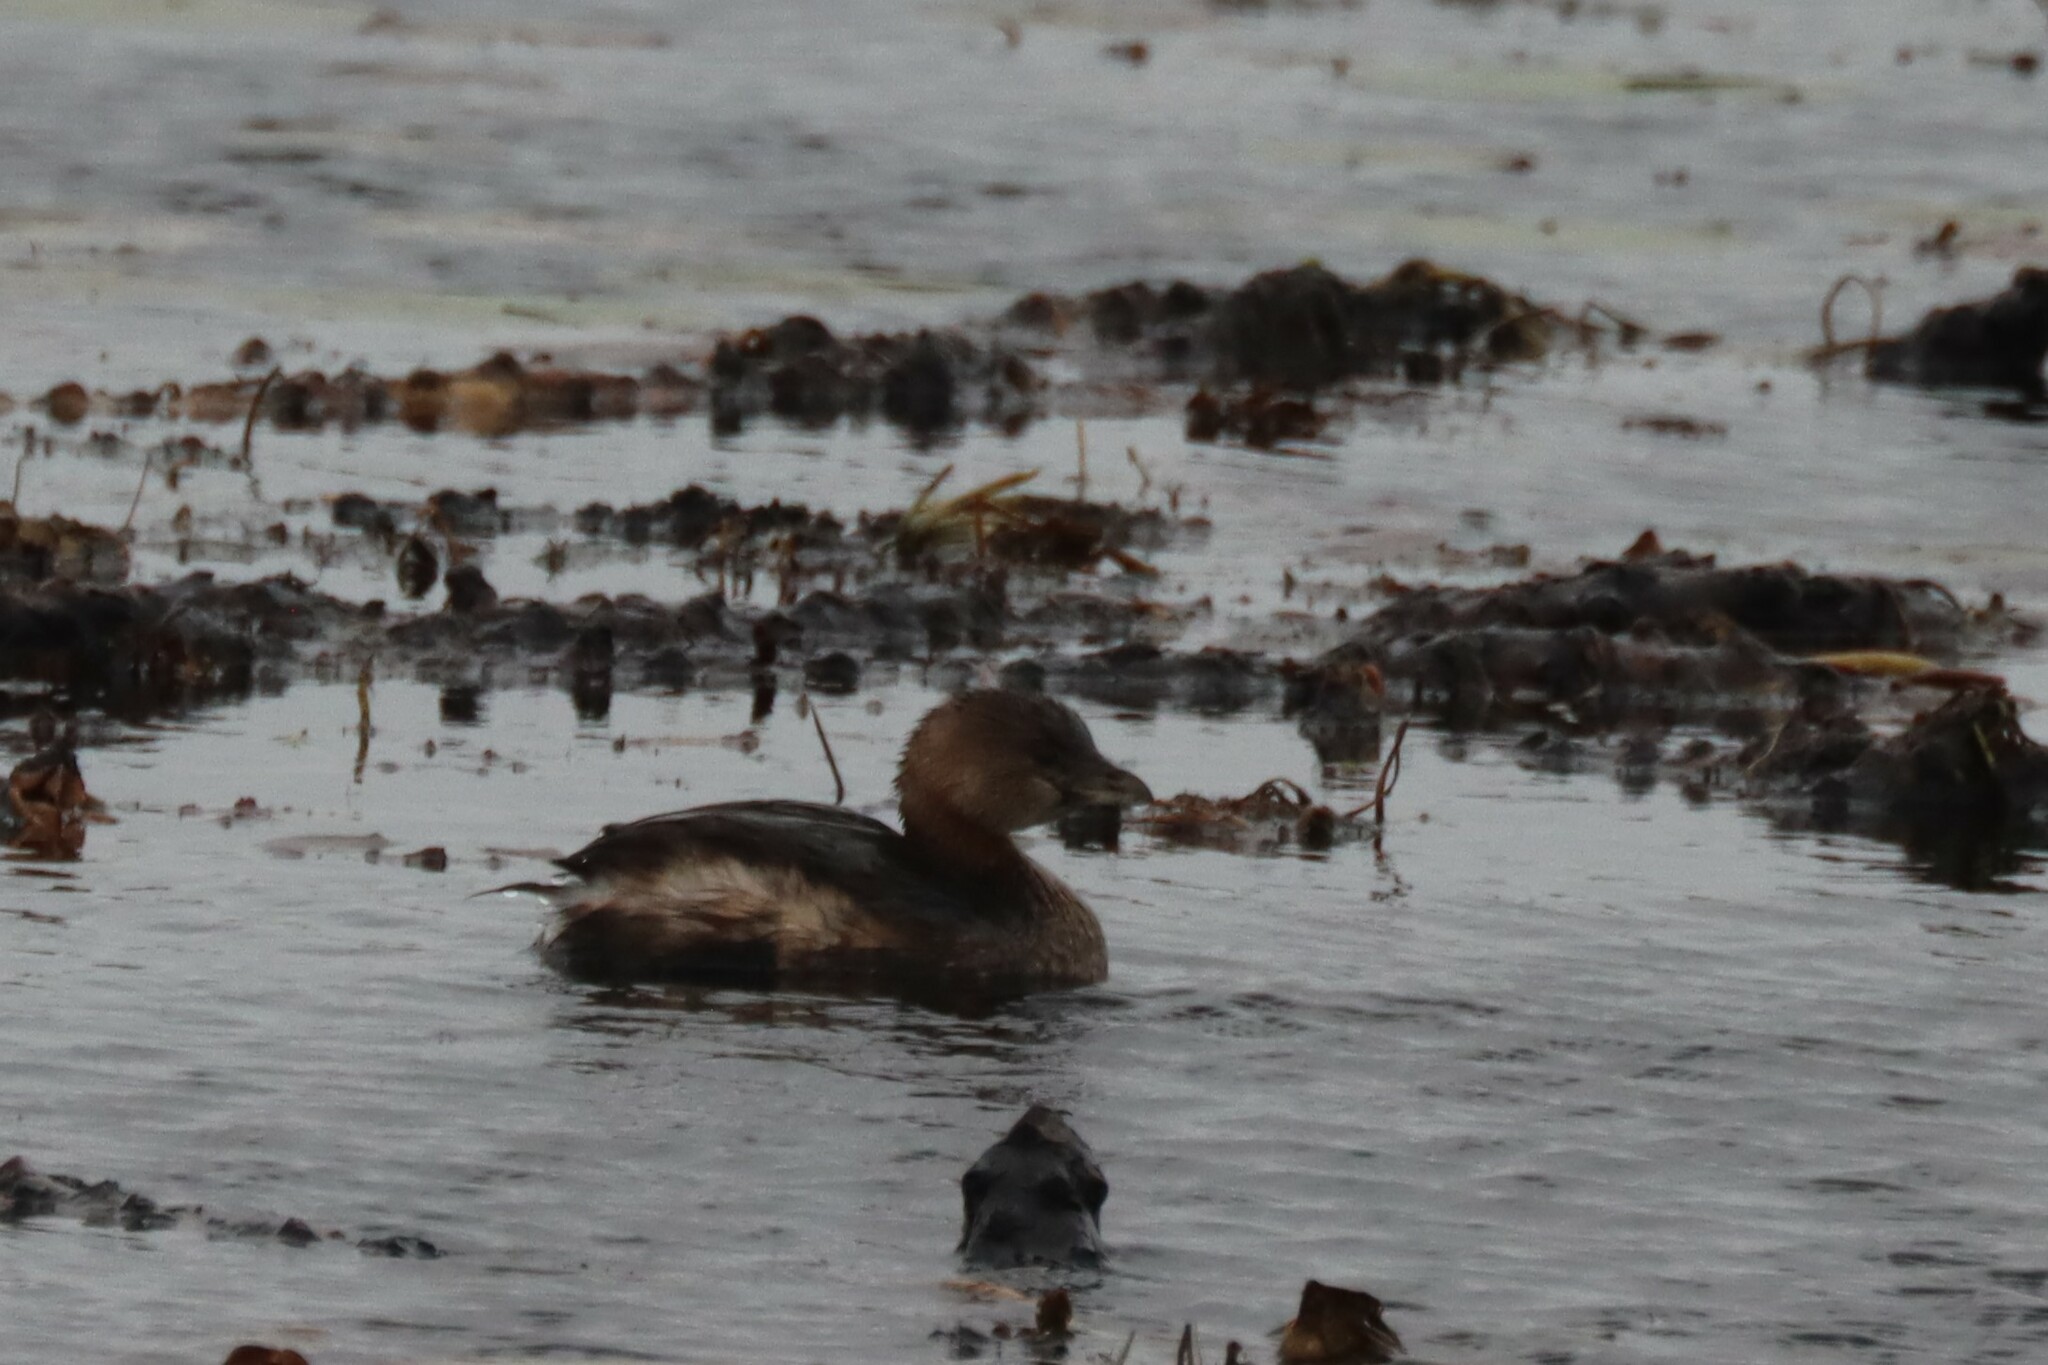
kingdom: Animalia
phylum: Chordata
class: Aves
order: Podicipediformes
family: Podicipedidae
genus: Podilymbus
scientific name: Podilymbus podiceps
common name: Pied-billed grebe
